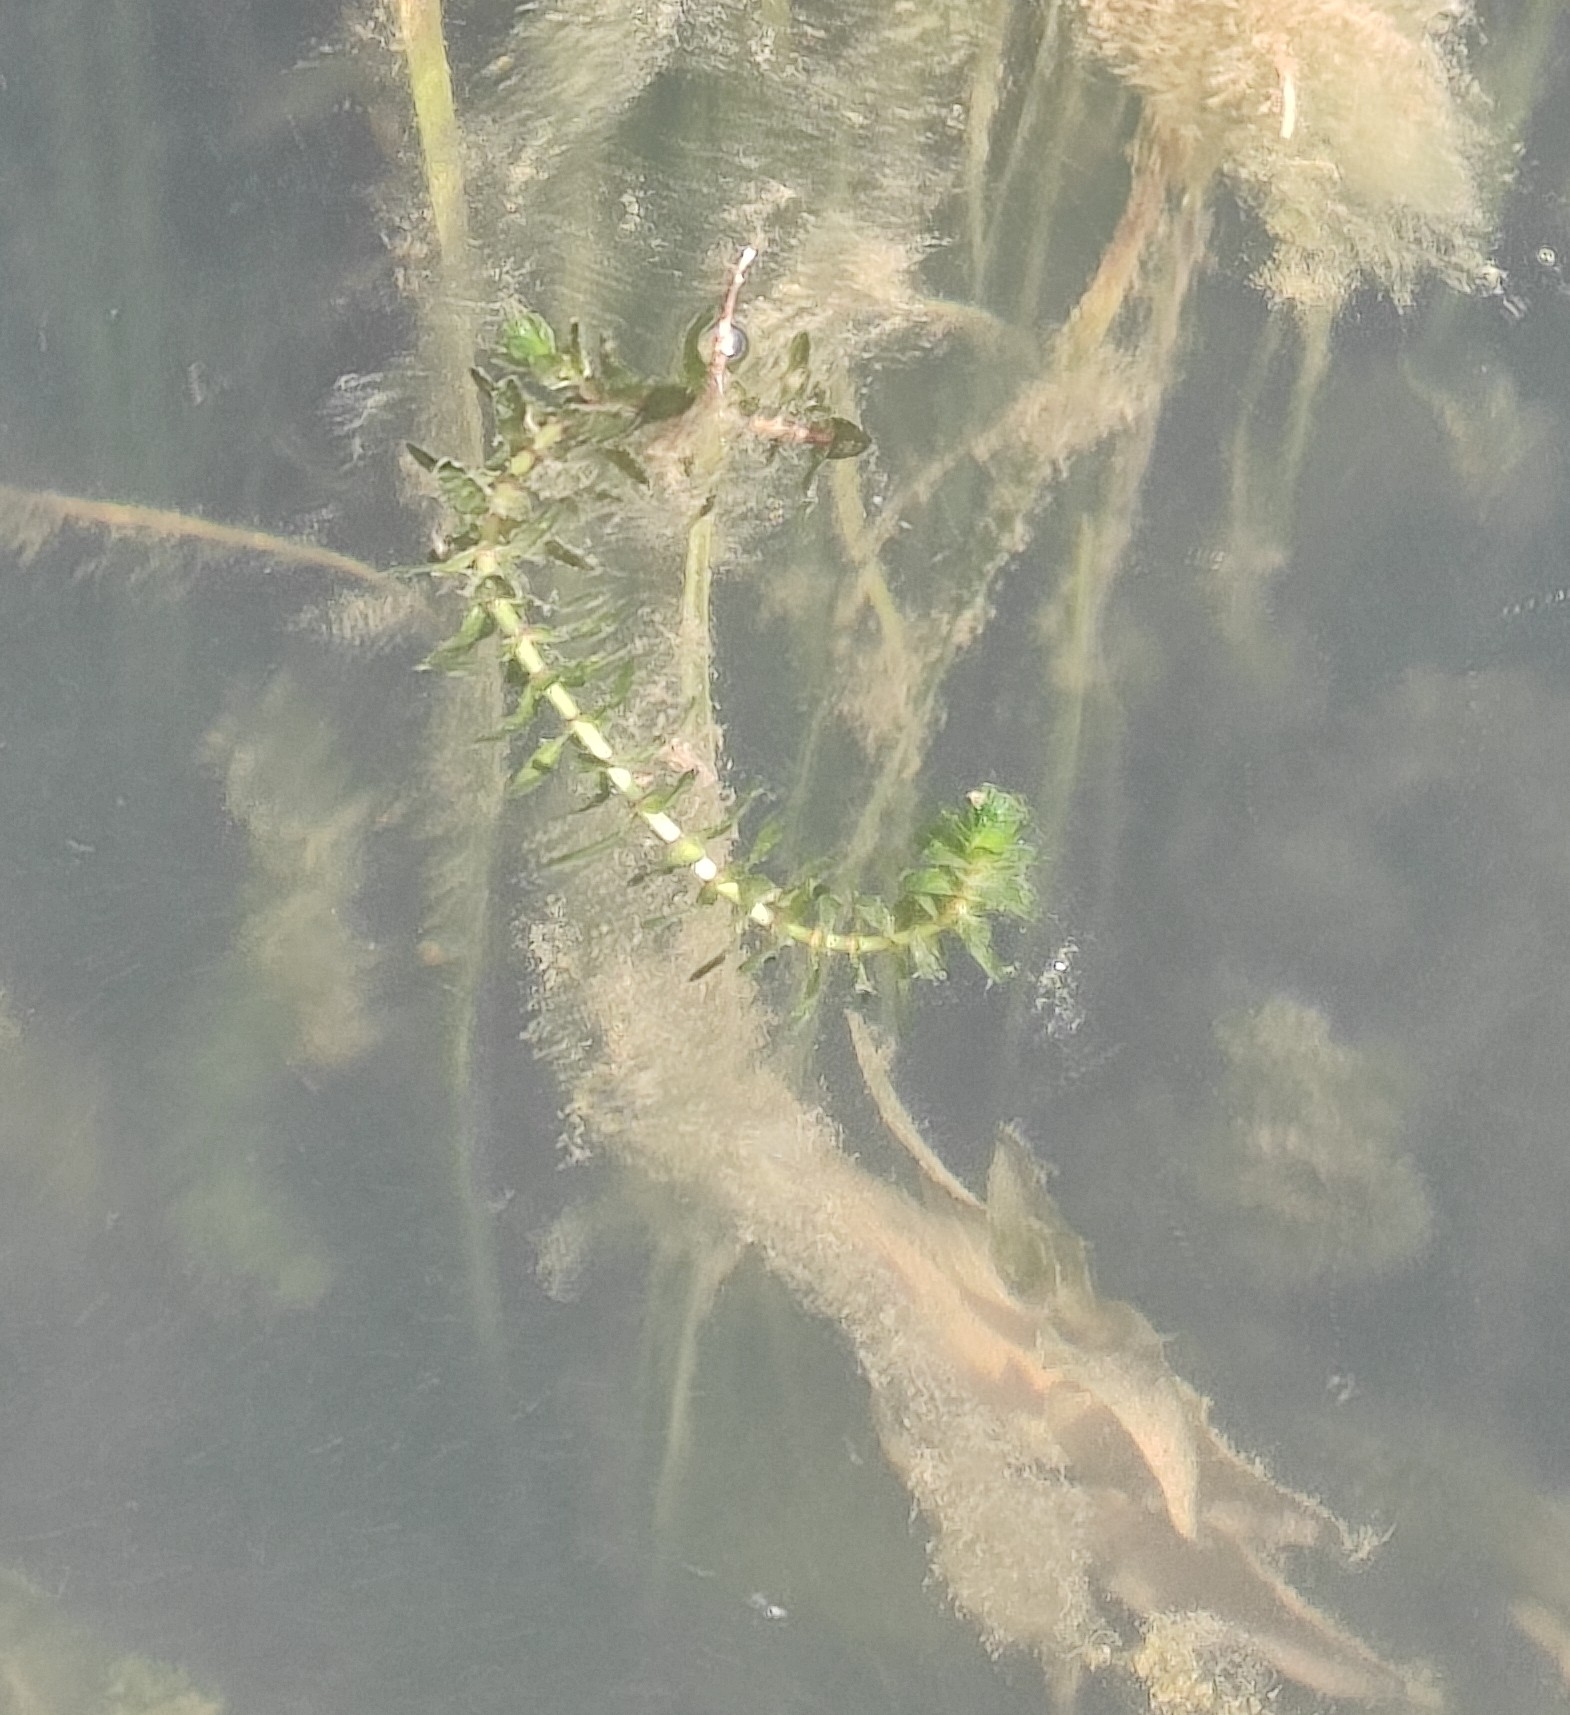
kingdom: Plantae
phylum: Tracheophyta
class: Liliopsida
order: Alismatales
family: Hydrocharitaceae
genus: Elodea
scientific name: Elodea canadensis
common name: Canadian waterweed
